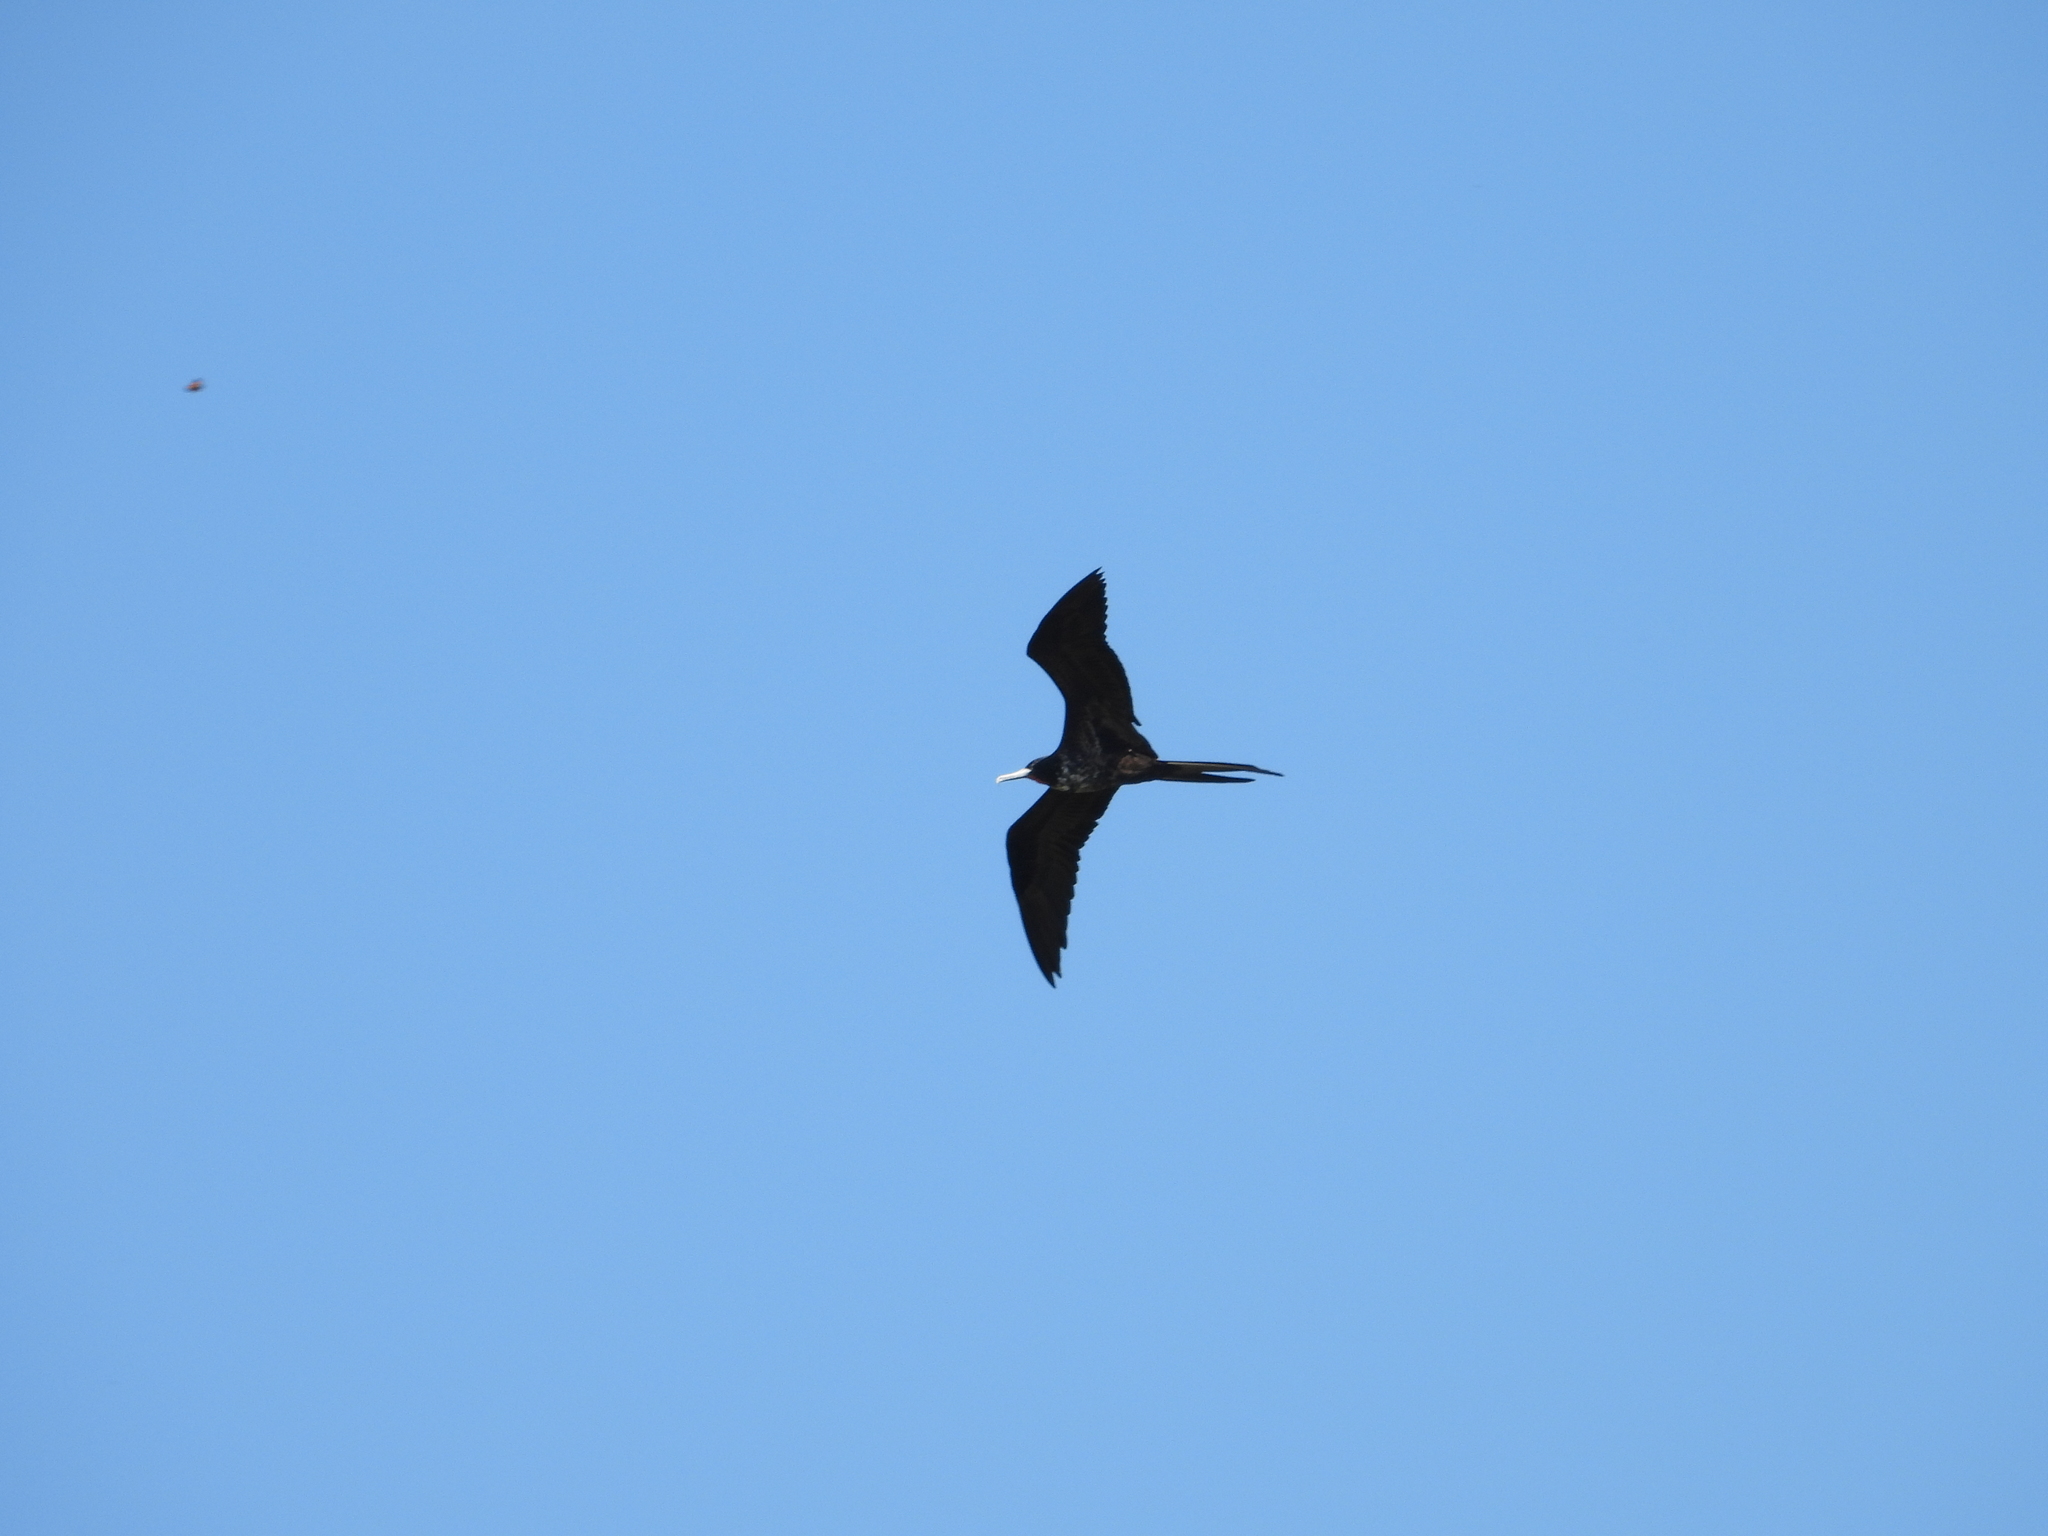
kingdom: Animalia
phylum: Chordata
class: Aves
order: Suliformes
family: Fregatidae
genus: Fregata
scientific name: Fregata magnificens
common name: Magnificent frigatebird
